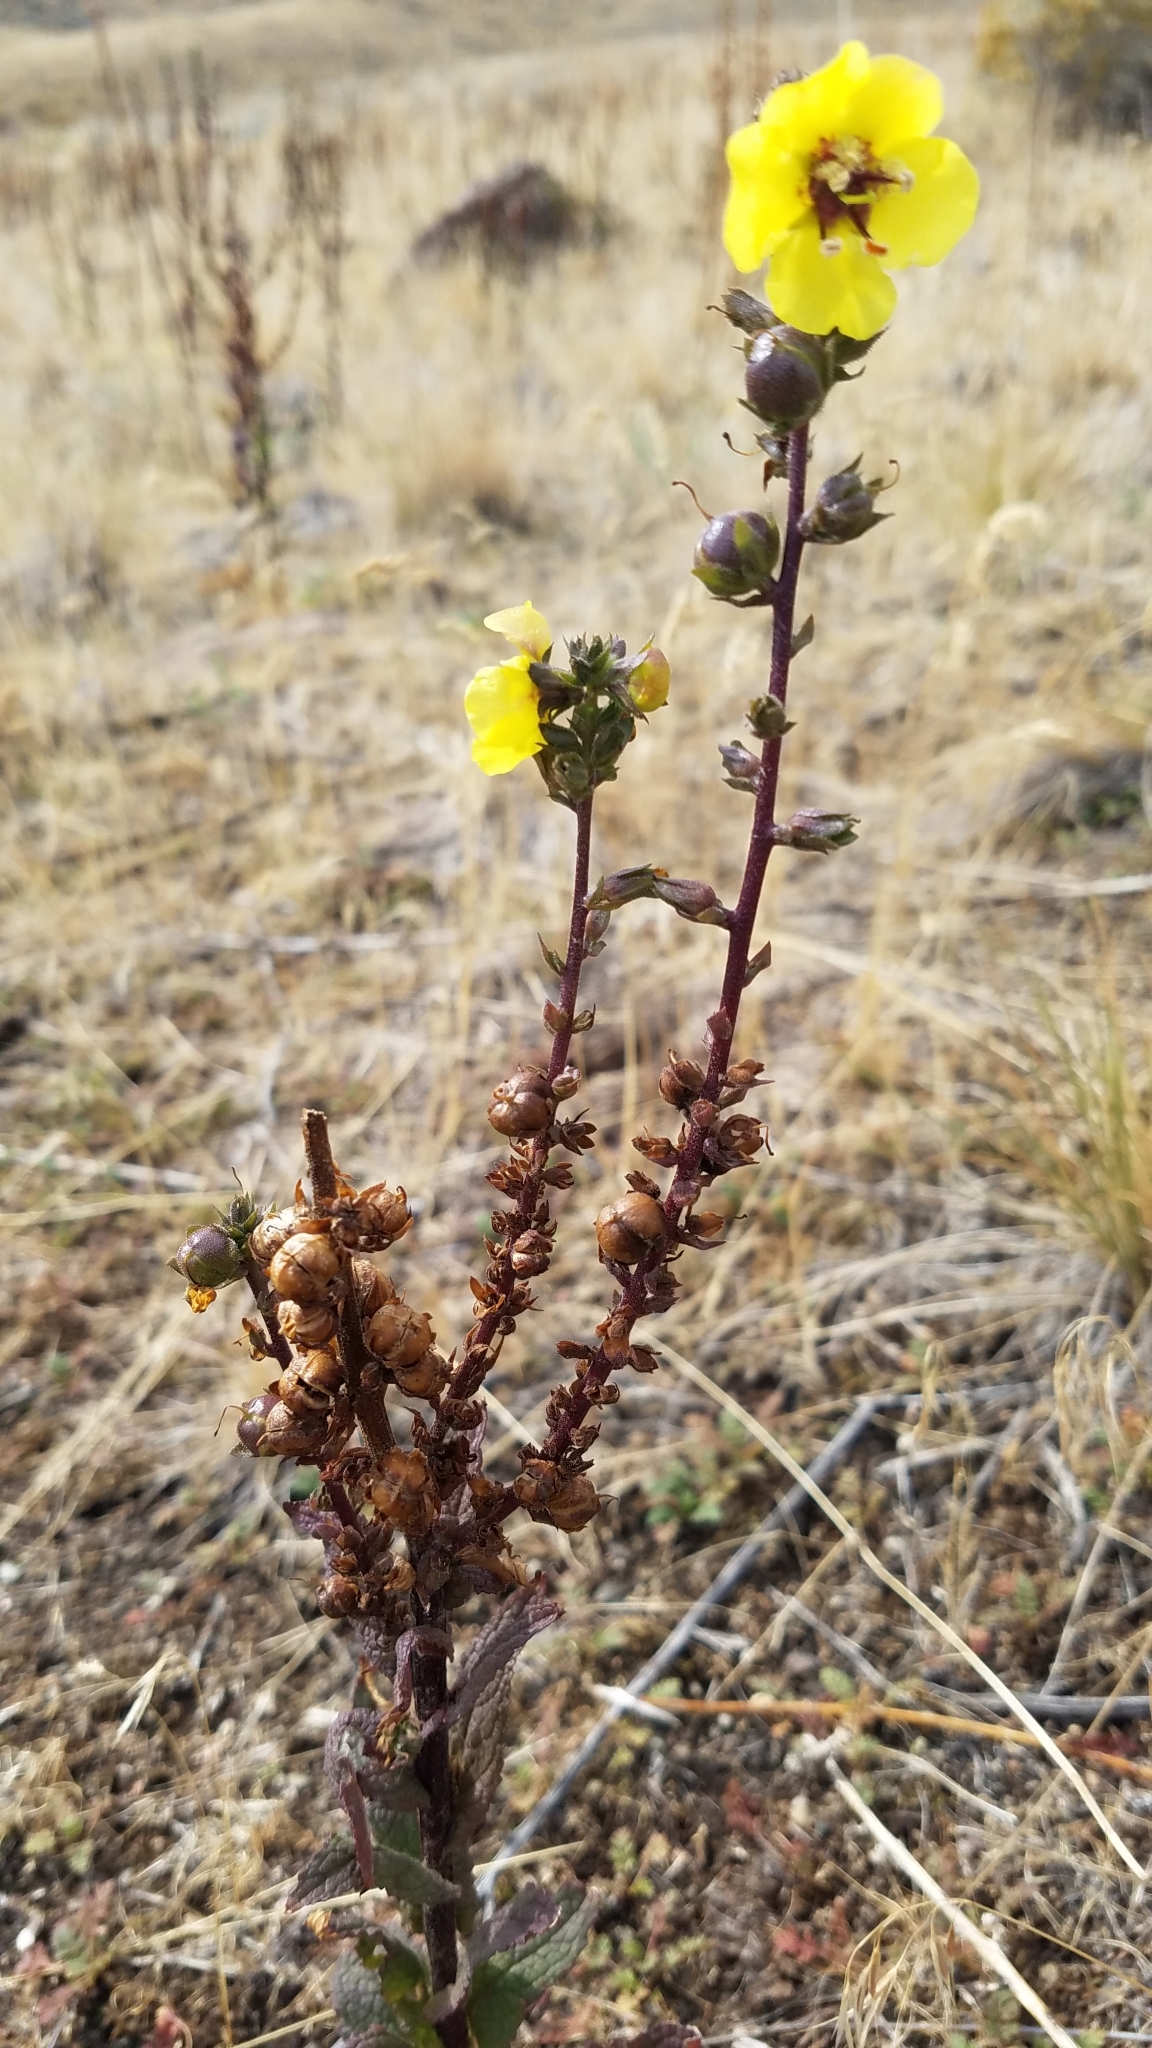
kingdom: Plantae
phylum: Tracheophyta
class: Magnoliopsida
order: Lamiales
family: Scrophulariaceae
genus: Verbascum
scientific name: Verbascum virgatum
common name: Twiggy mullein
